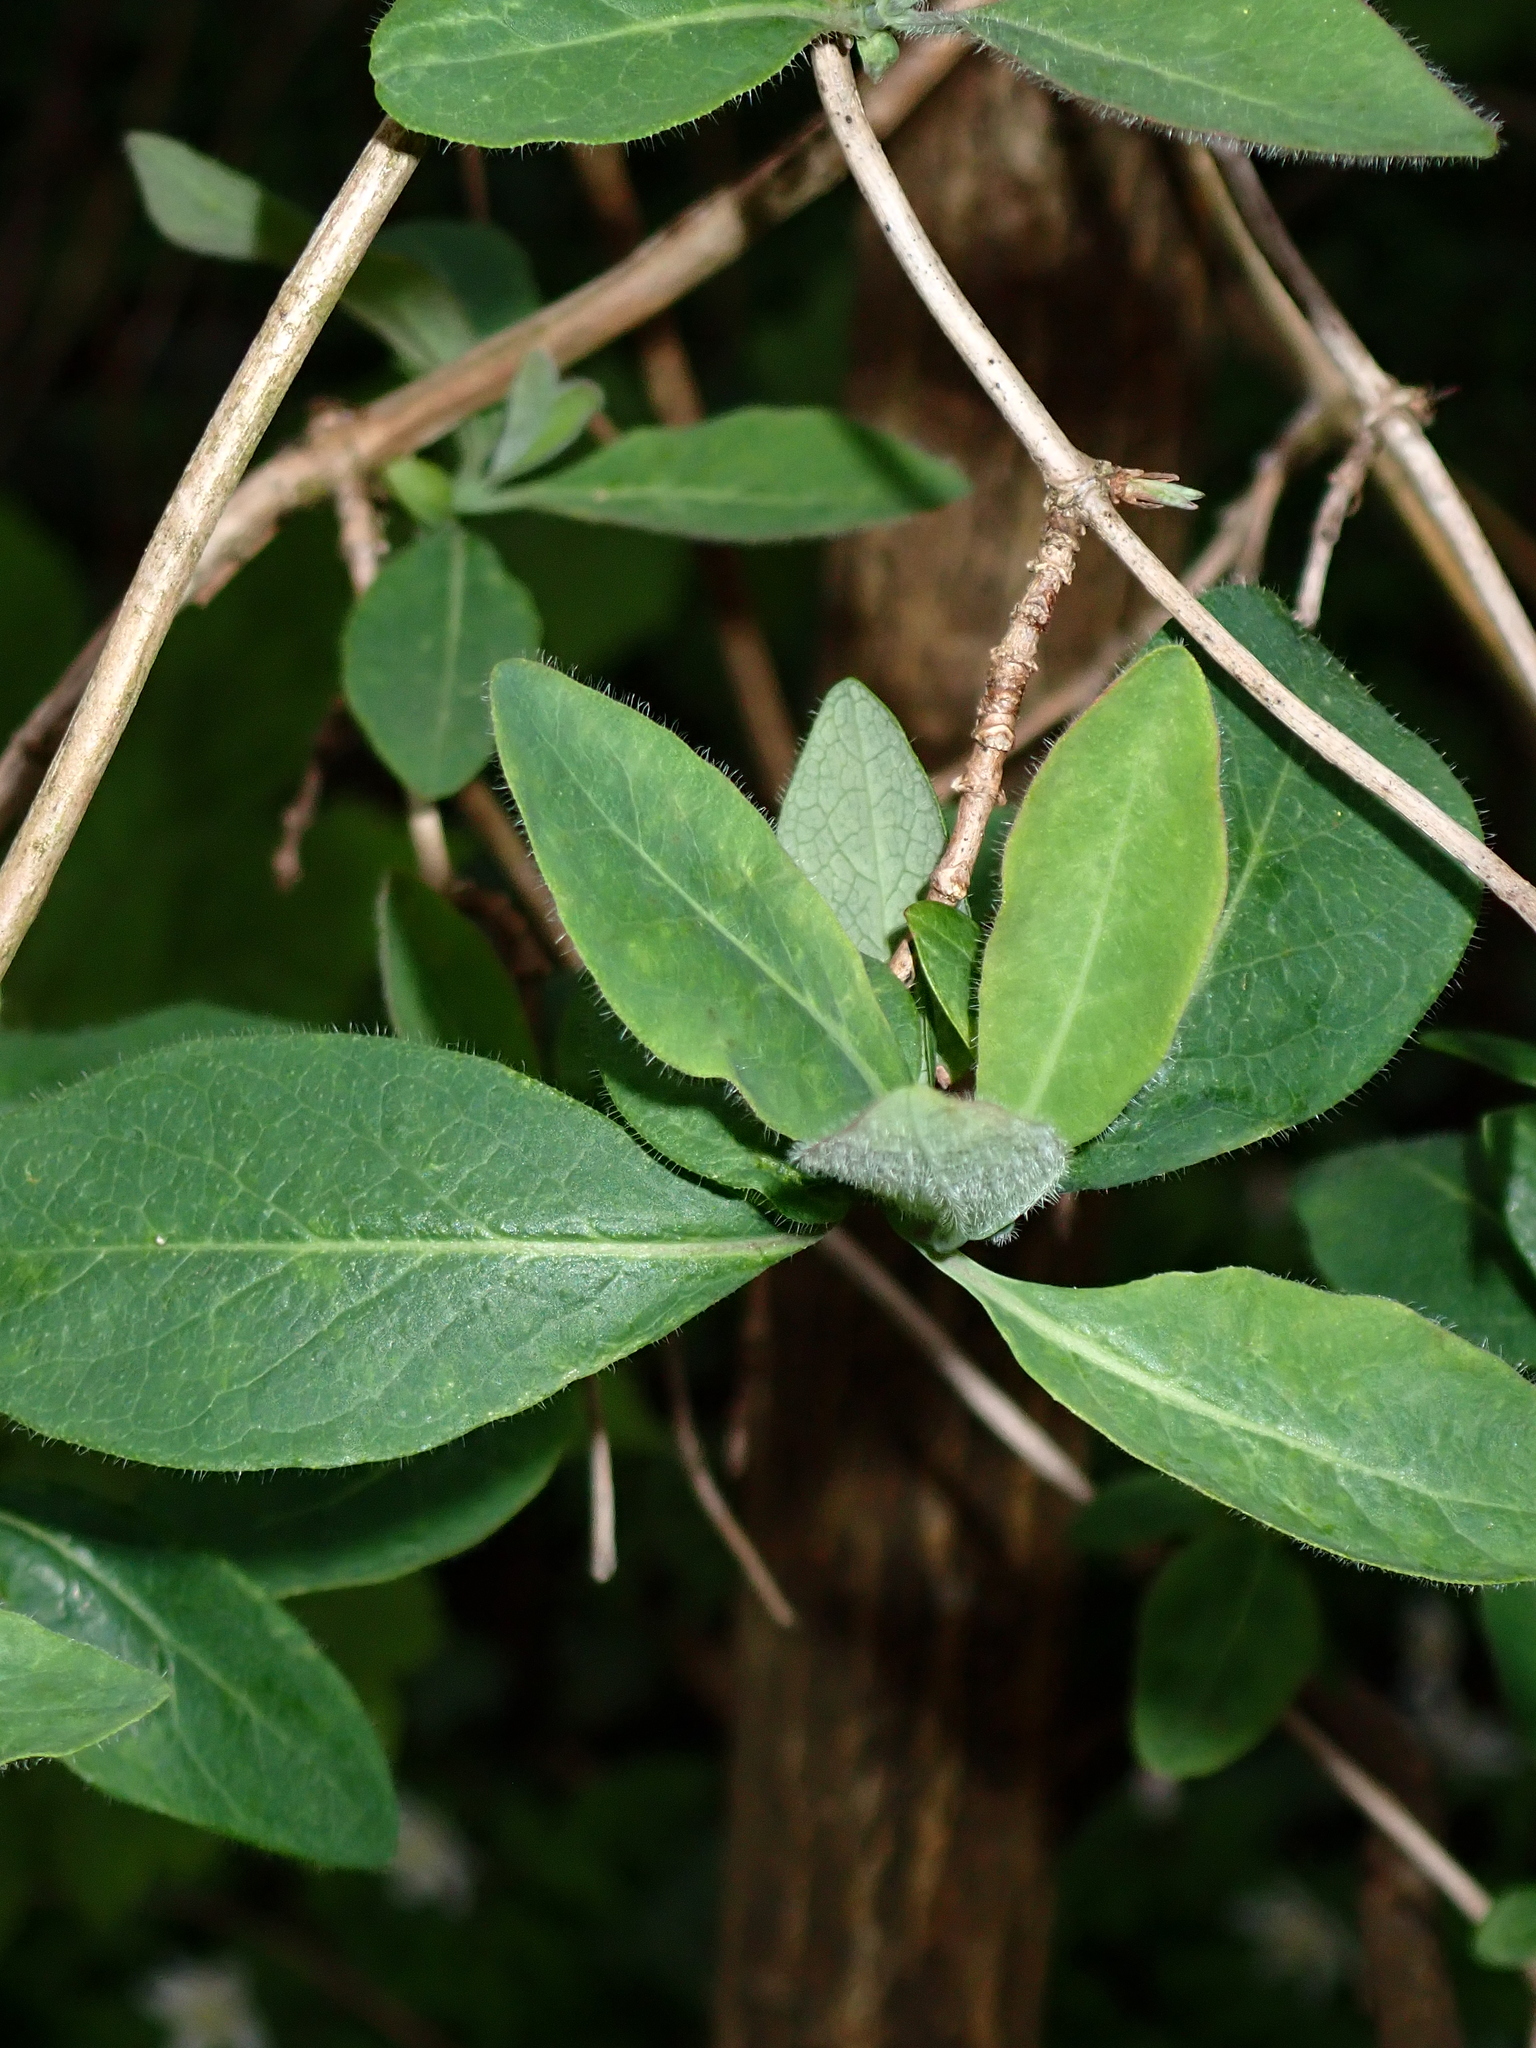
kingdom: Plantae
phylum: Tracheophyta
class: Magnoliopsida
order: Dipsacales
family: Caprifoliaceae
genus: Lonicera
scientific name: Lonicera periclymenum
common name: European honeysuckle
